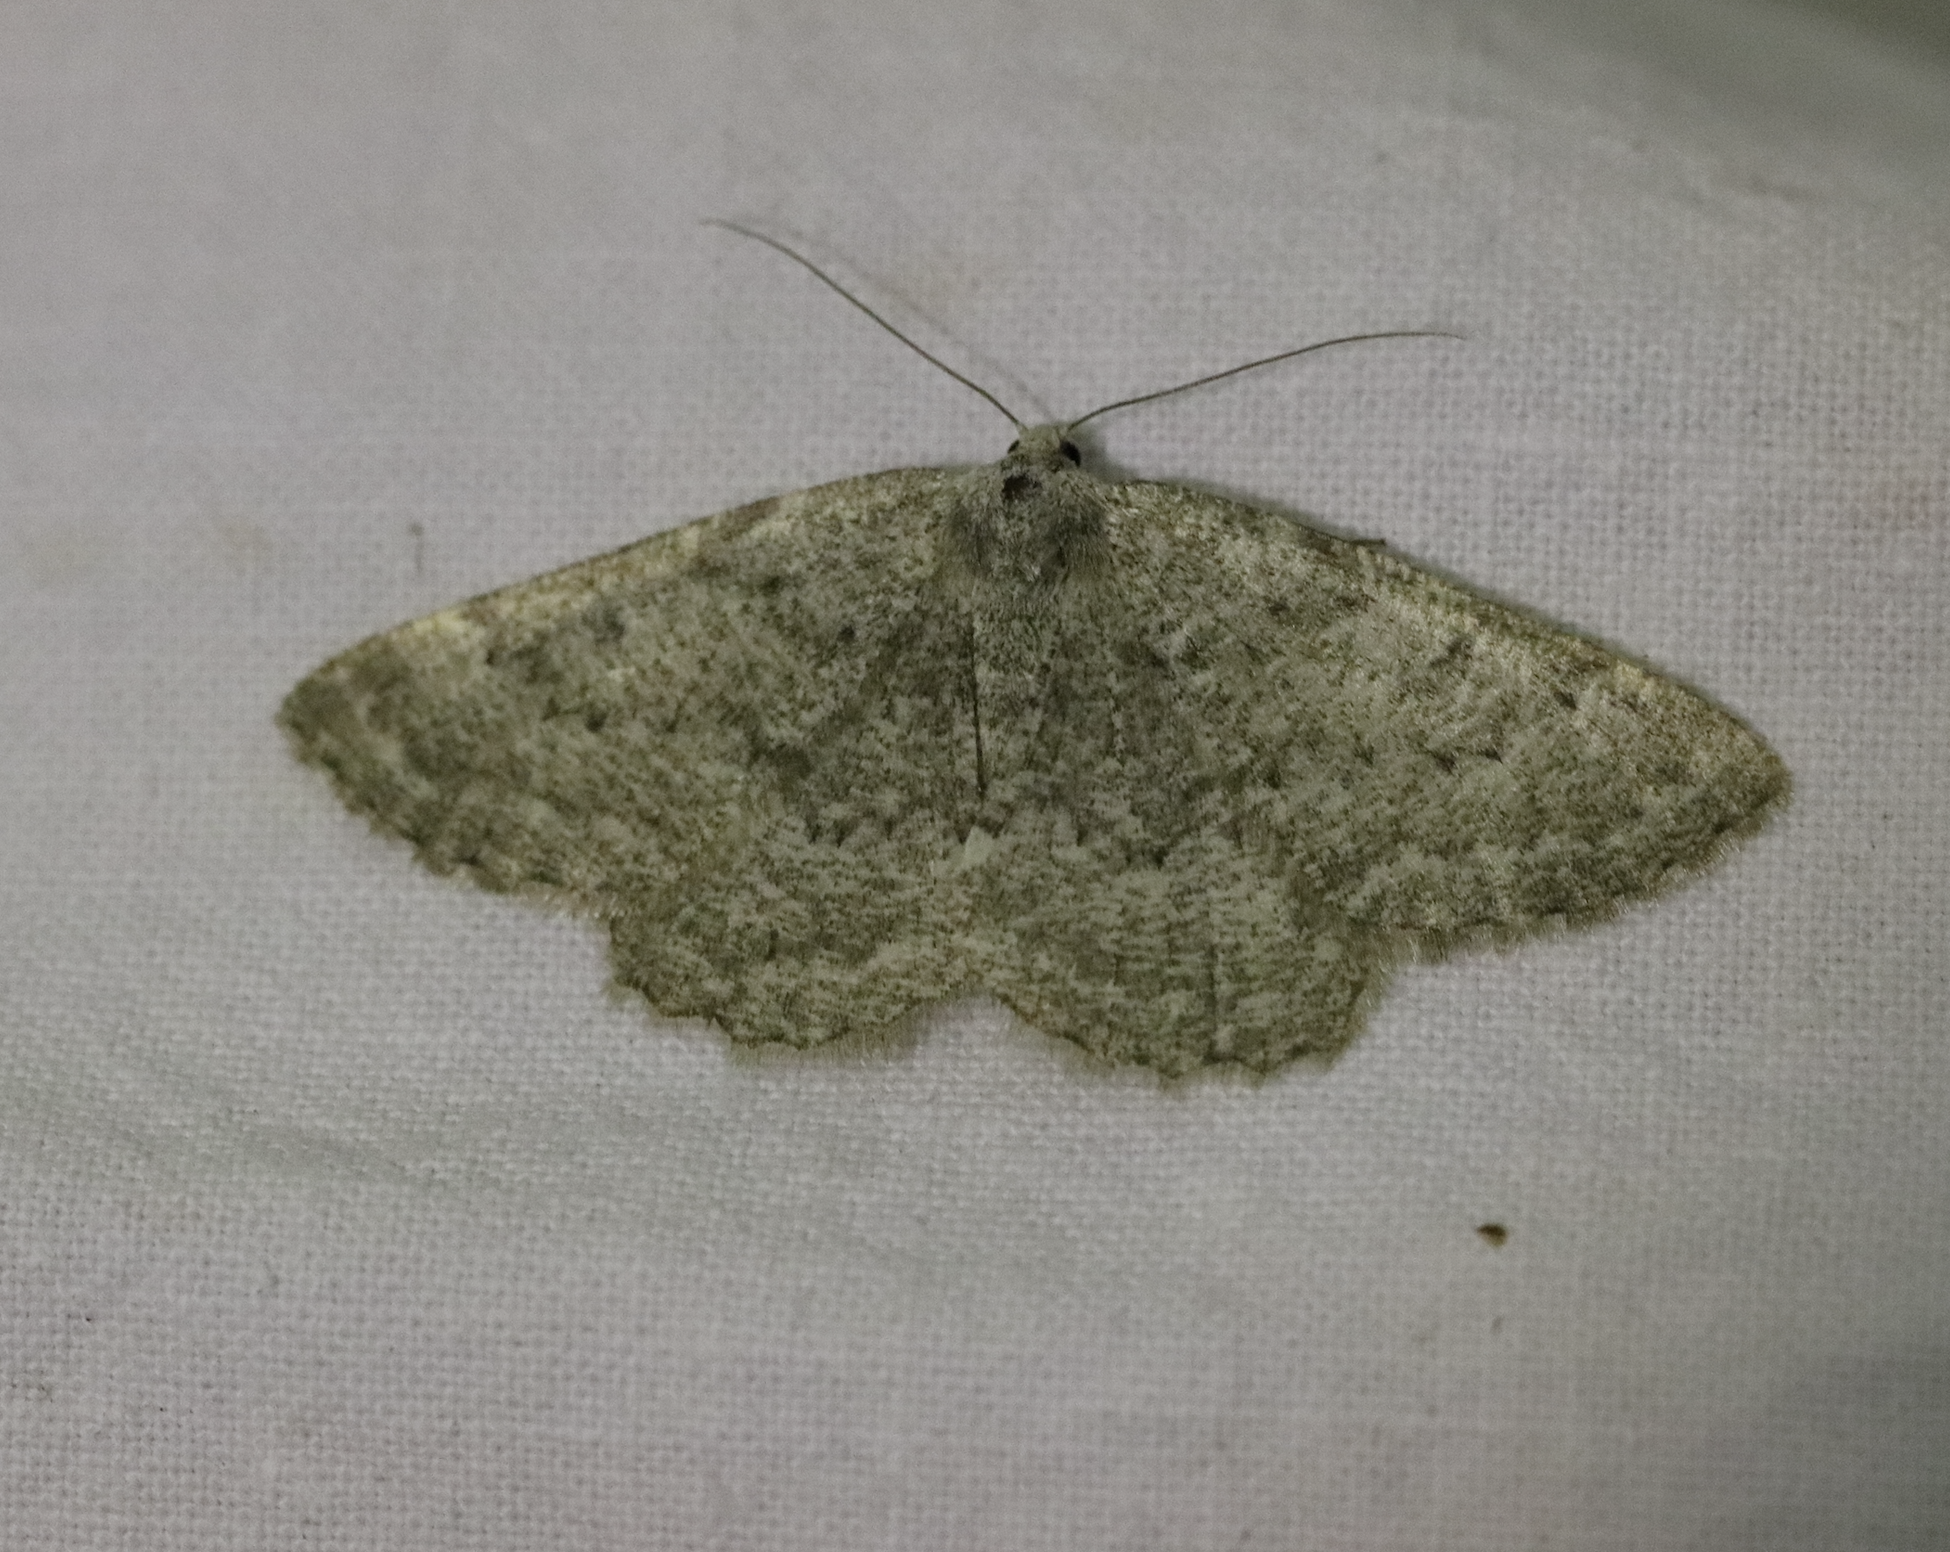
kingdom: Animalia
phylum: Arthropoda
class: Insecta
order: Lepidoptera
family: Geometridae
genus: Gnophos
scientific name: Gnophos obfuscata
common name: Scottish annulet
